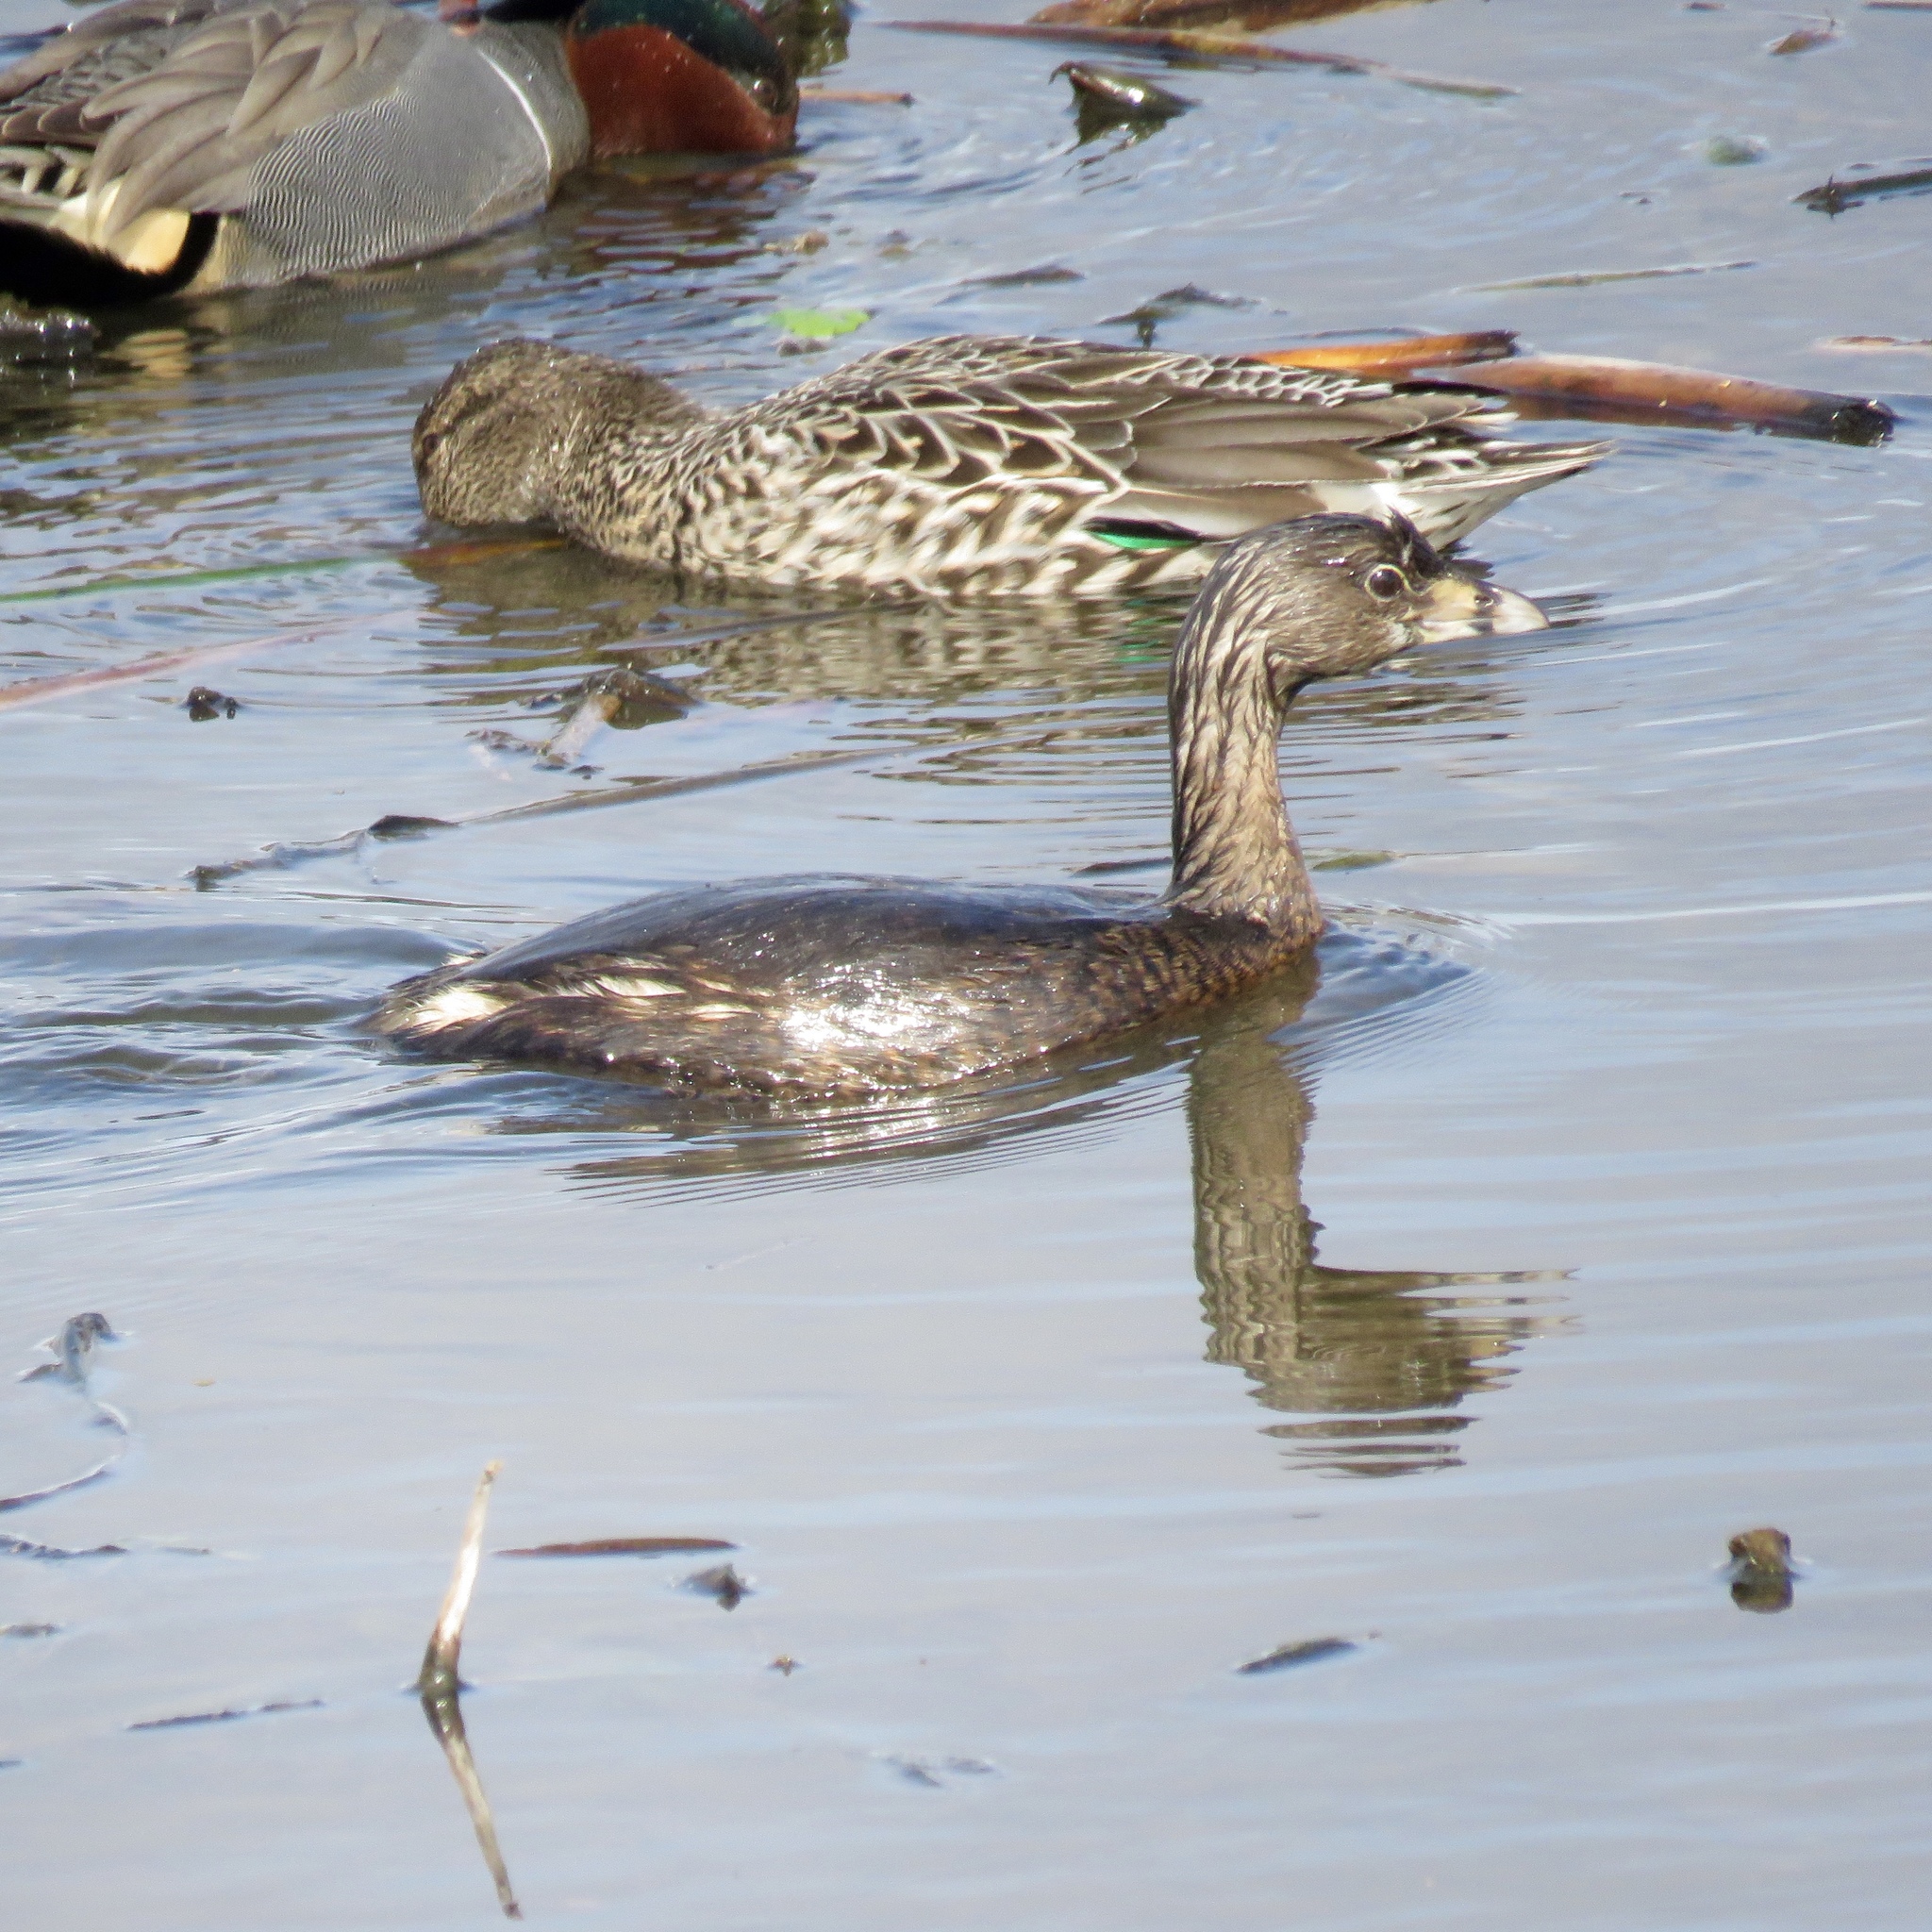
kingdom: Animalia
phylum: Chordata
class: Aves
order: Podicipediformes
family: Podicipedidae
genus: Podilymbus
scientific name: Podilymbus podiceps
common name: Pied-billed grebe
